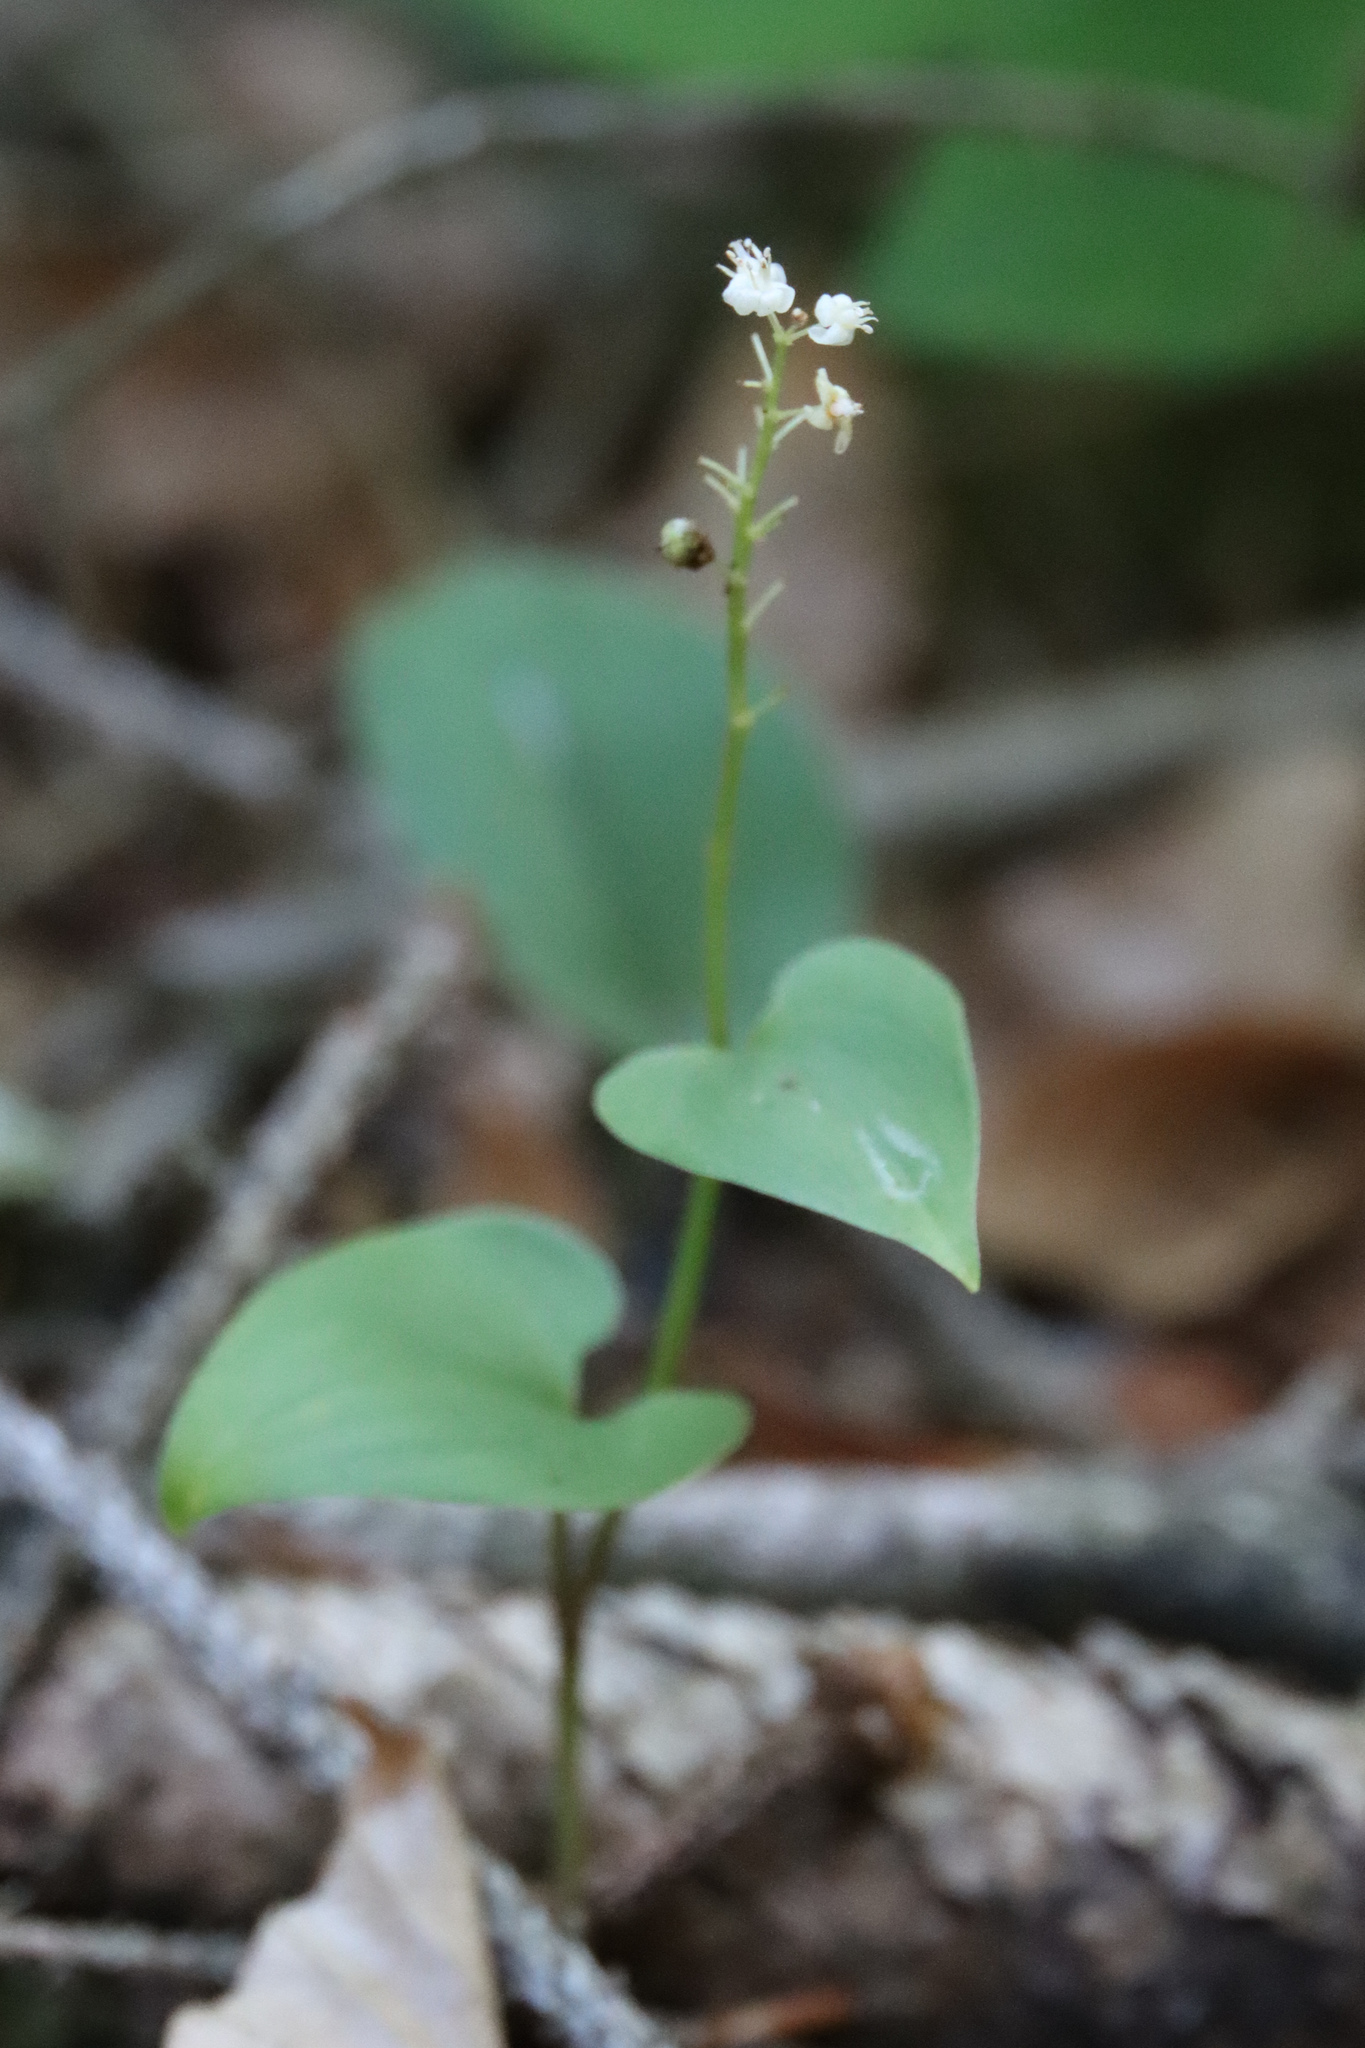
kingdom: Plantae
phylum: Tracheophyta
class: Liliopsida
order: Asparagales
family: Asparagaceae
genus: Maianthemum
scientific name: Maianthemum bifolium
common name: May lily
